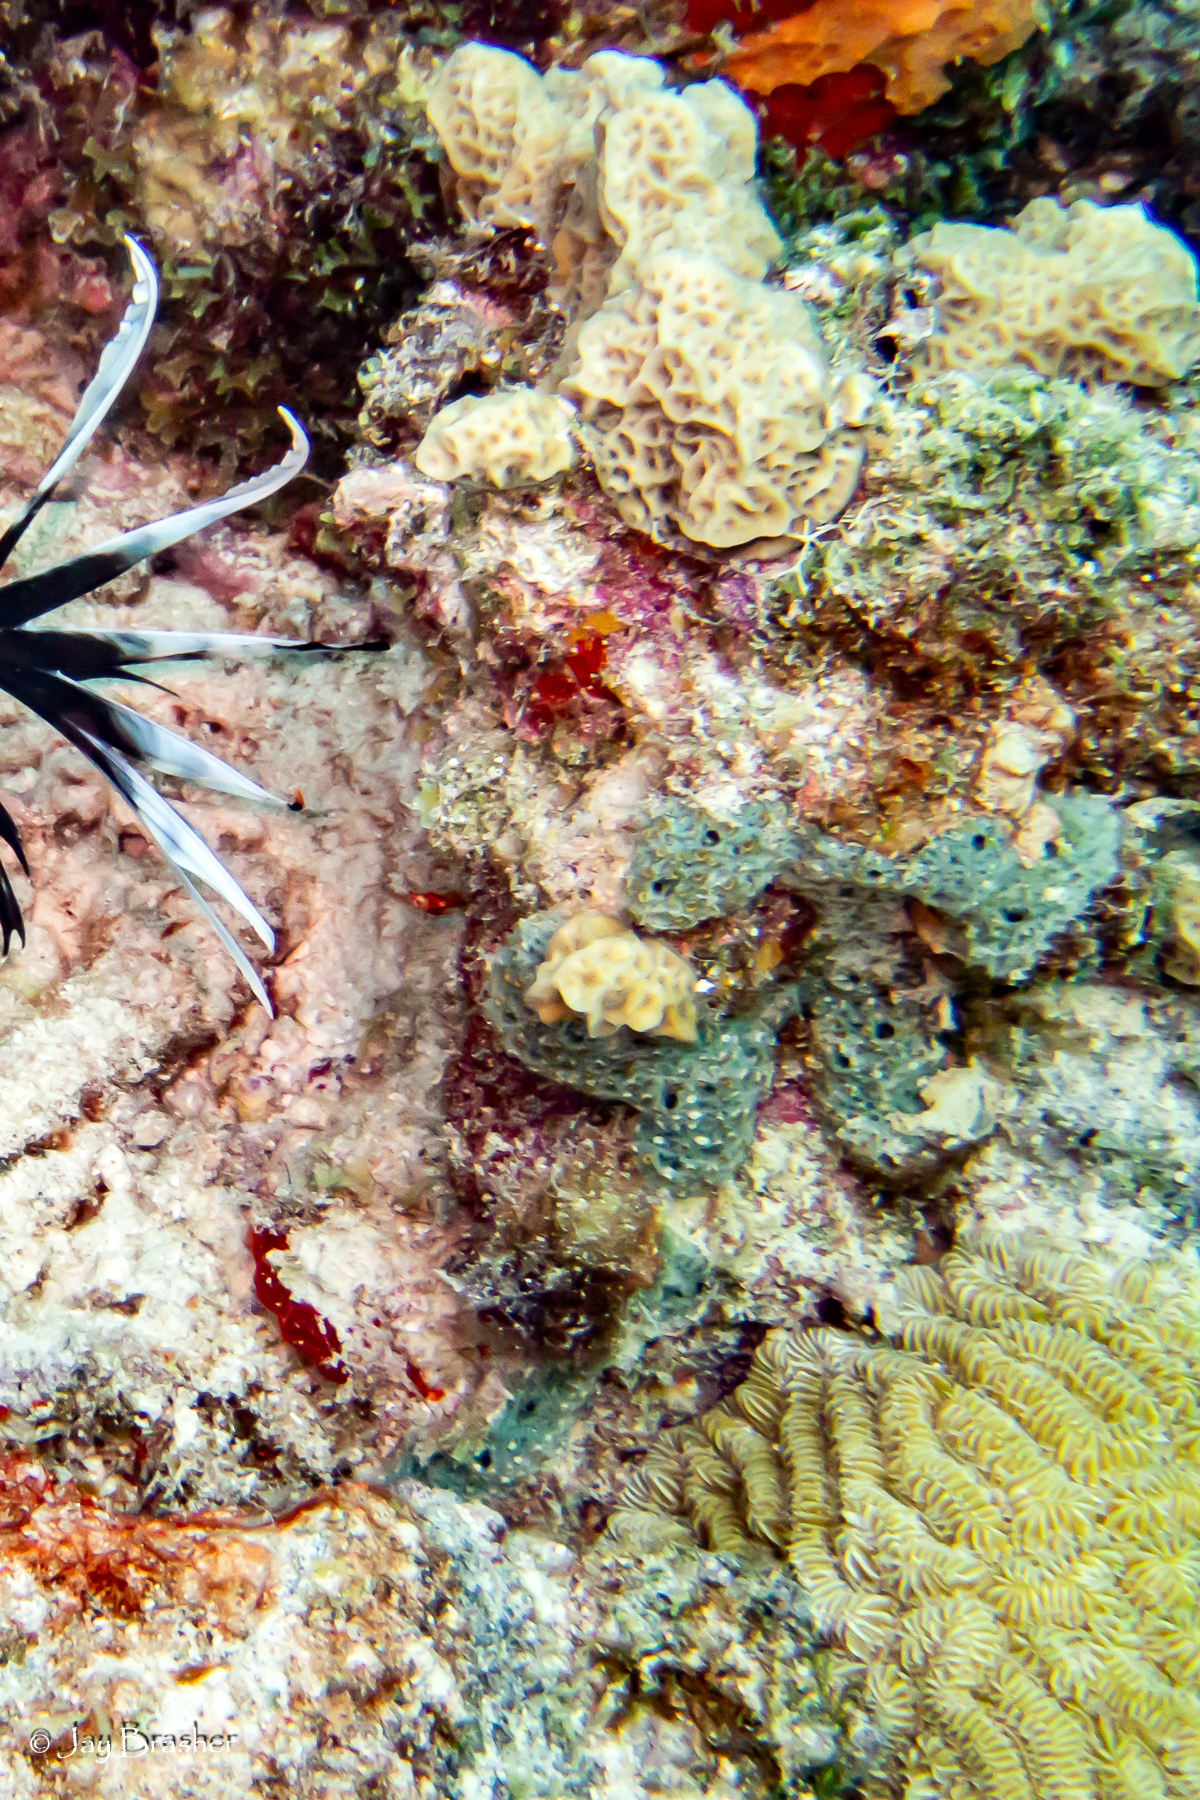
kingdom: Animalia
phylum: Cnidaria
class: Anthozoa
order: Scleractinia
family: Meandrinidae
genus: Meandrina
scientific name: Meandrina meandrites
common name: Maze coral
